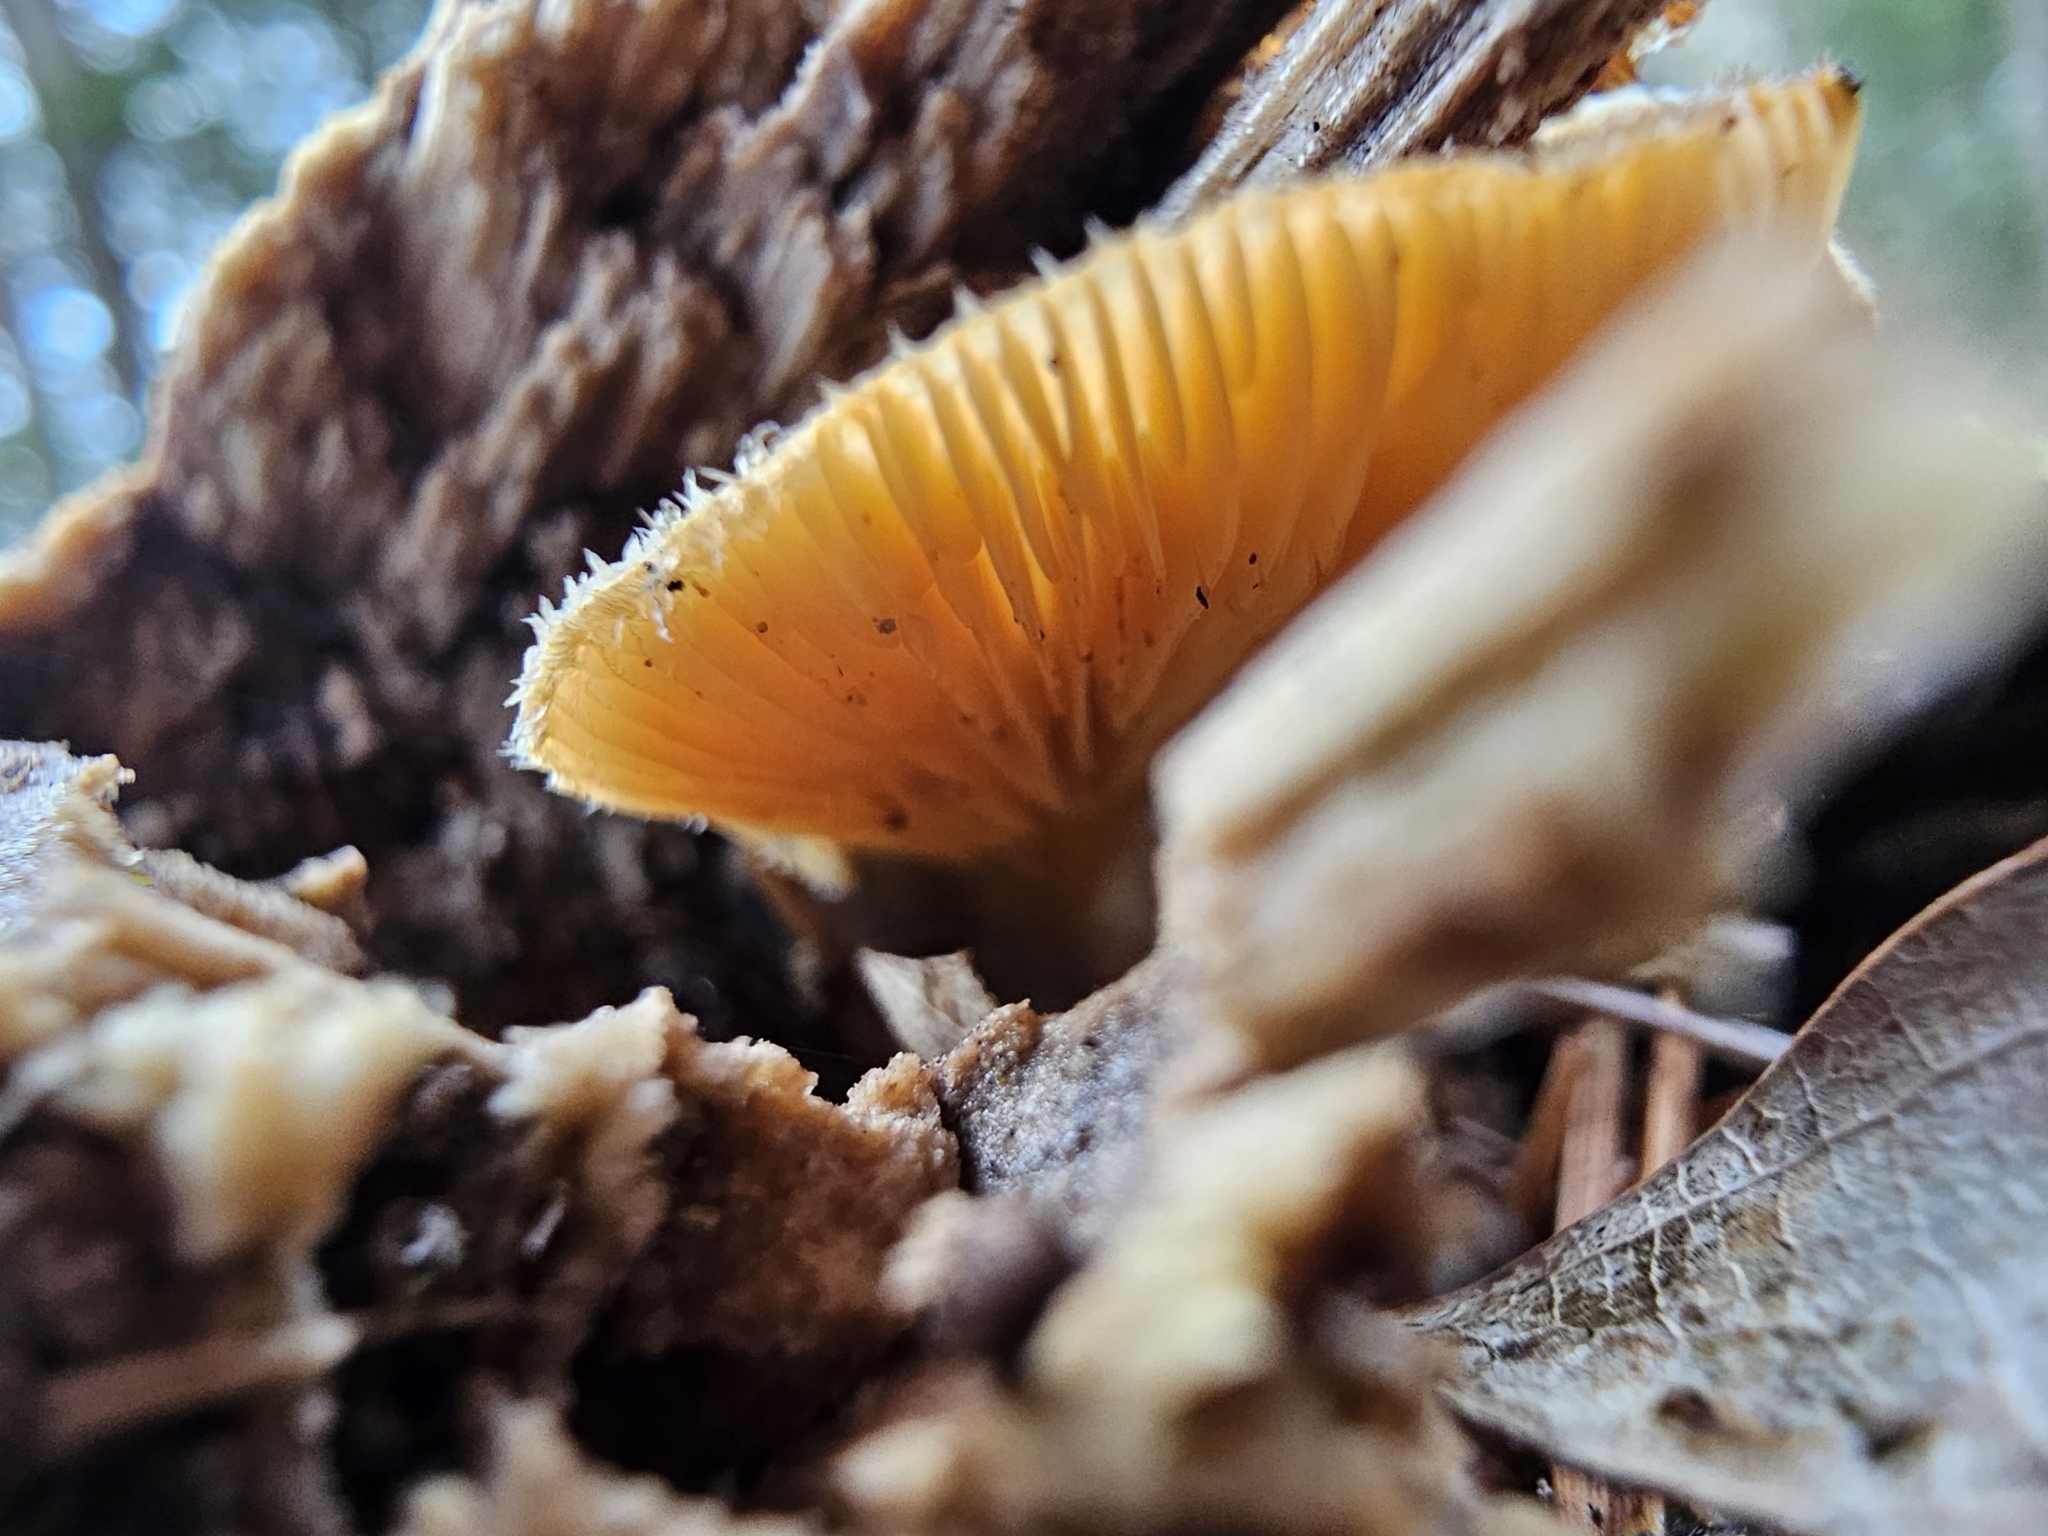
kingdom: Fungi
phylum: Basidiomycota
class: Agaricomycetes
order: Agaricales
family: Phyllotopsidaceae
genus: Phyllotopsis
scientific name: Phyllotopsis nidulans
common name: Orange mock oyster
